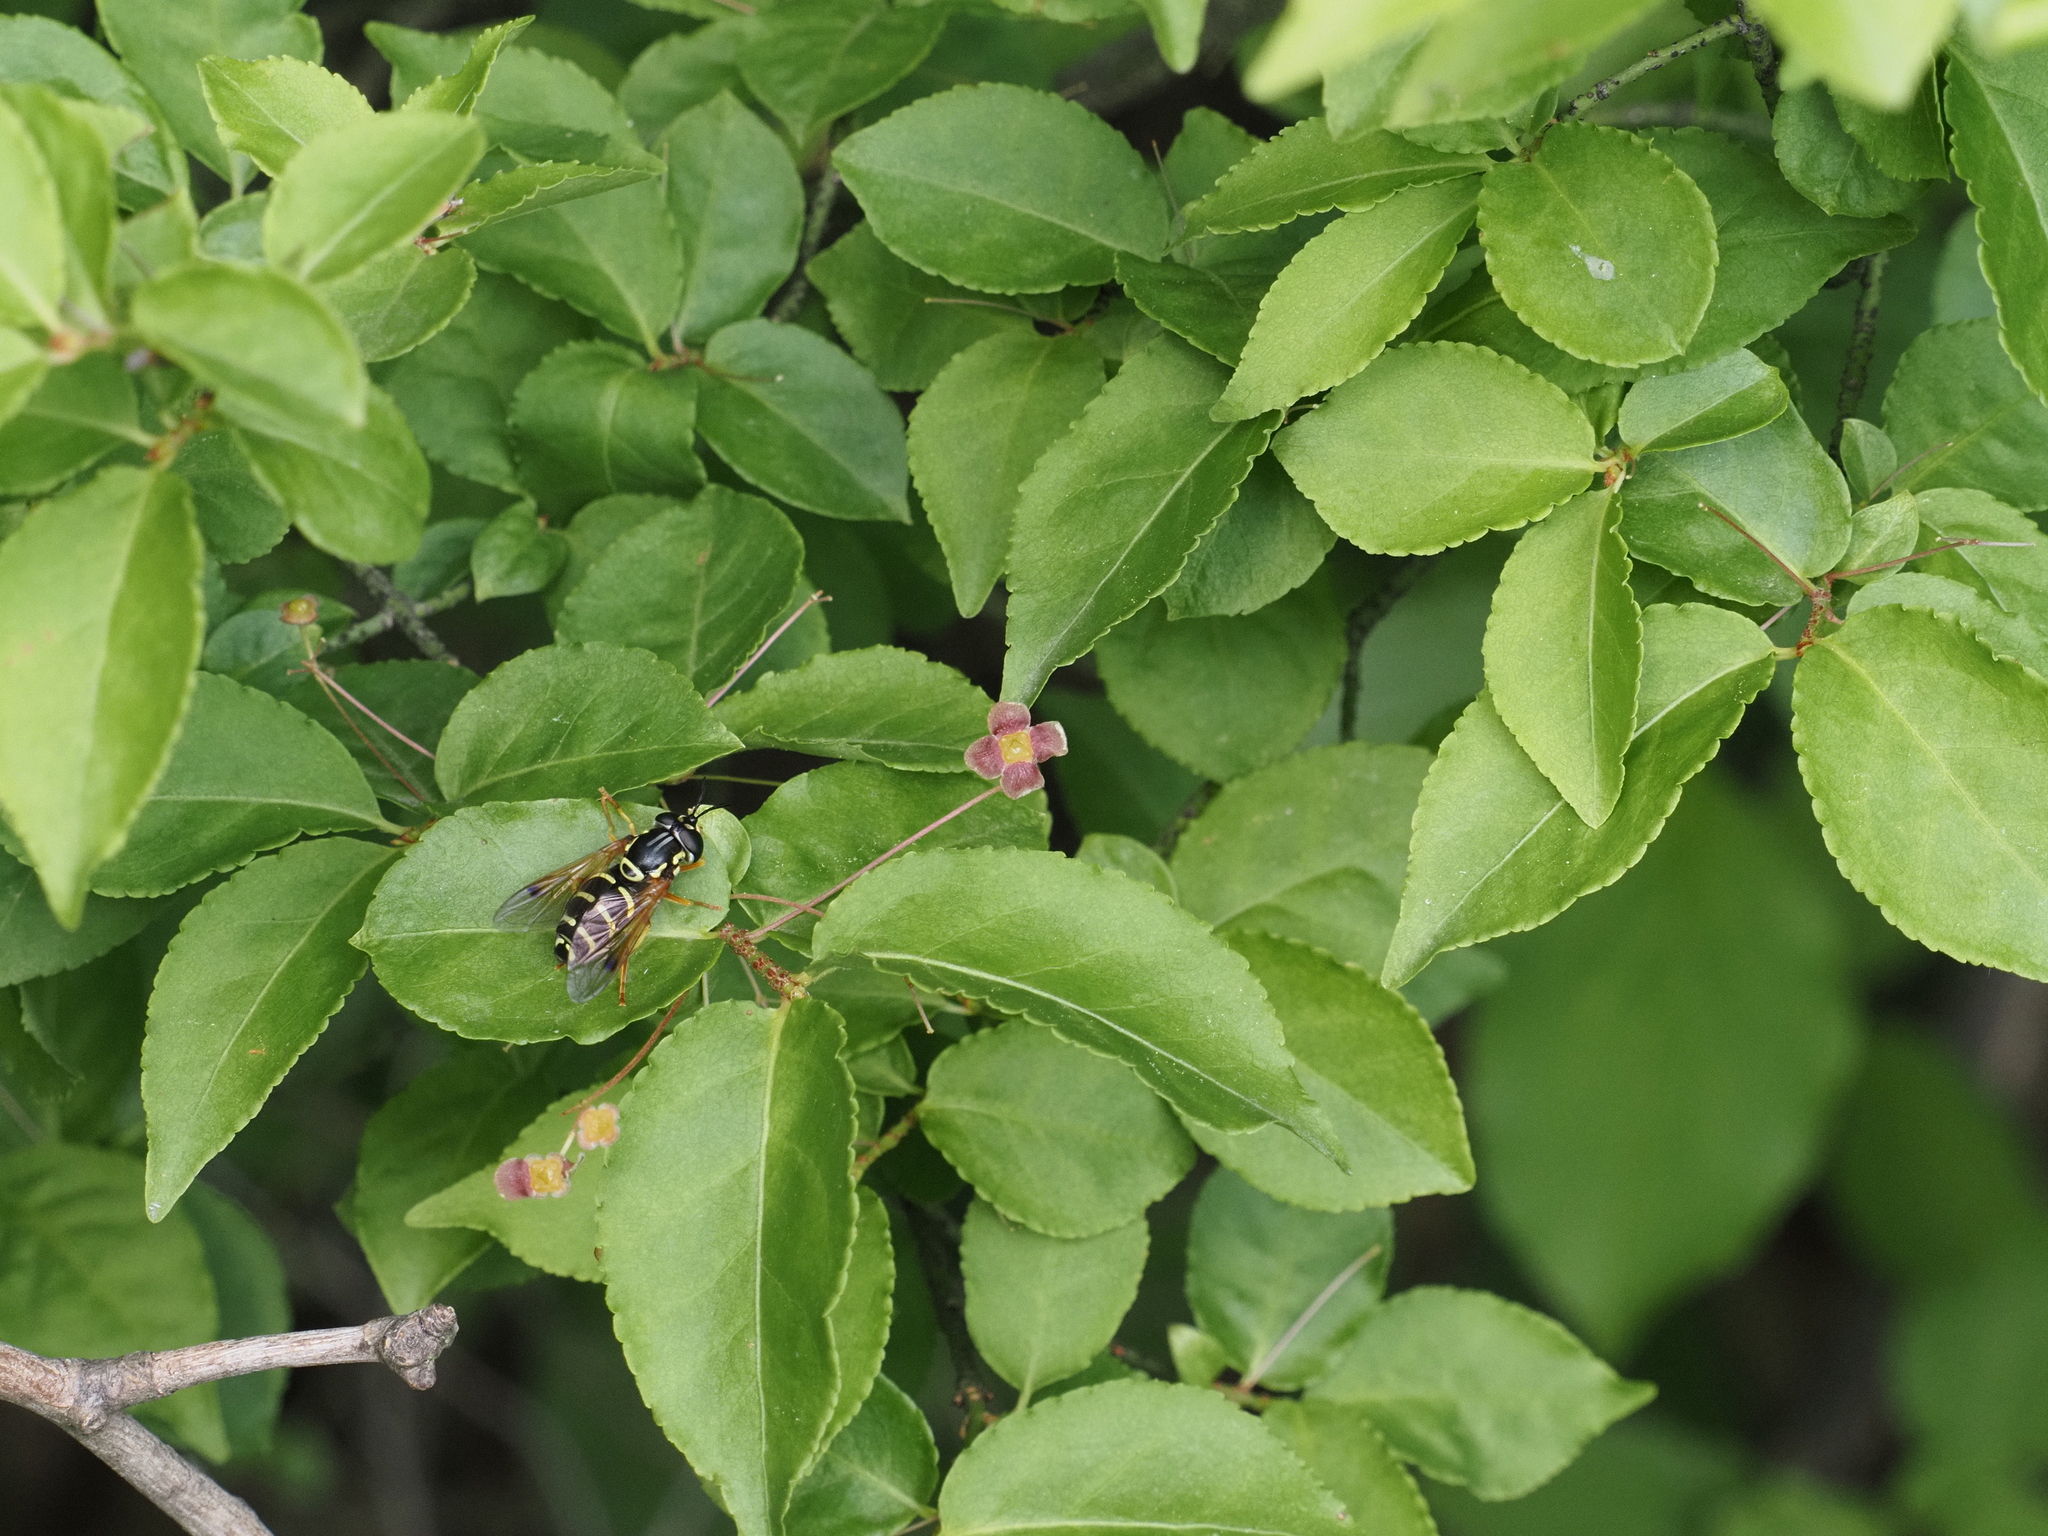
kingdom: Plantae
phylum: Tracheophyta
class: Magnoliopsida
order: Celastrales
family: Celastraceae
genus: Euonymus
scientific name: Euonymus verrucosus
